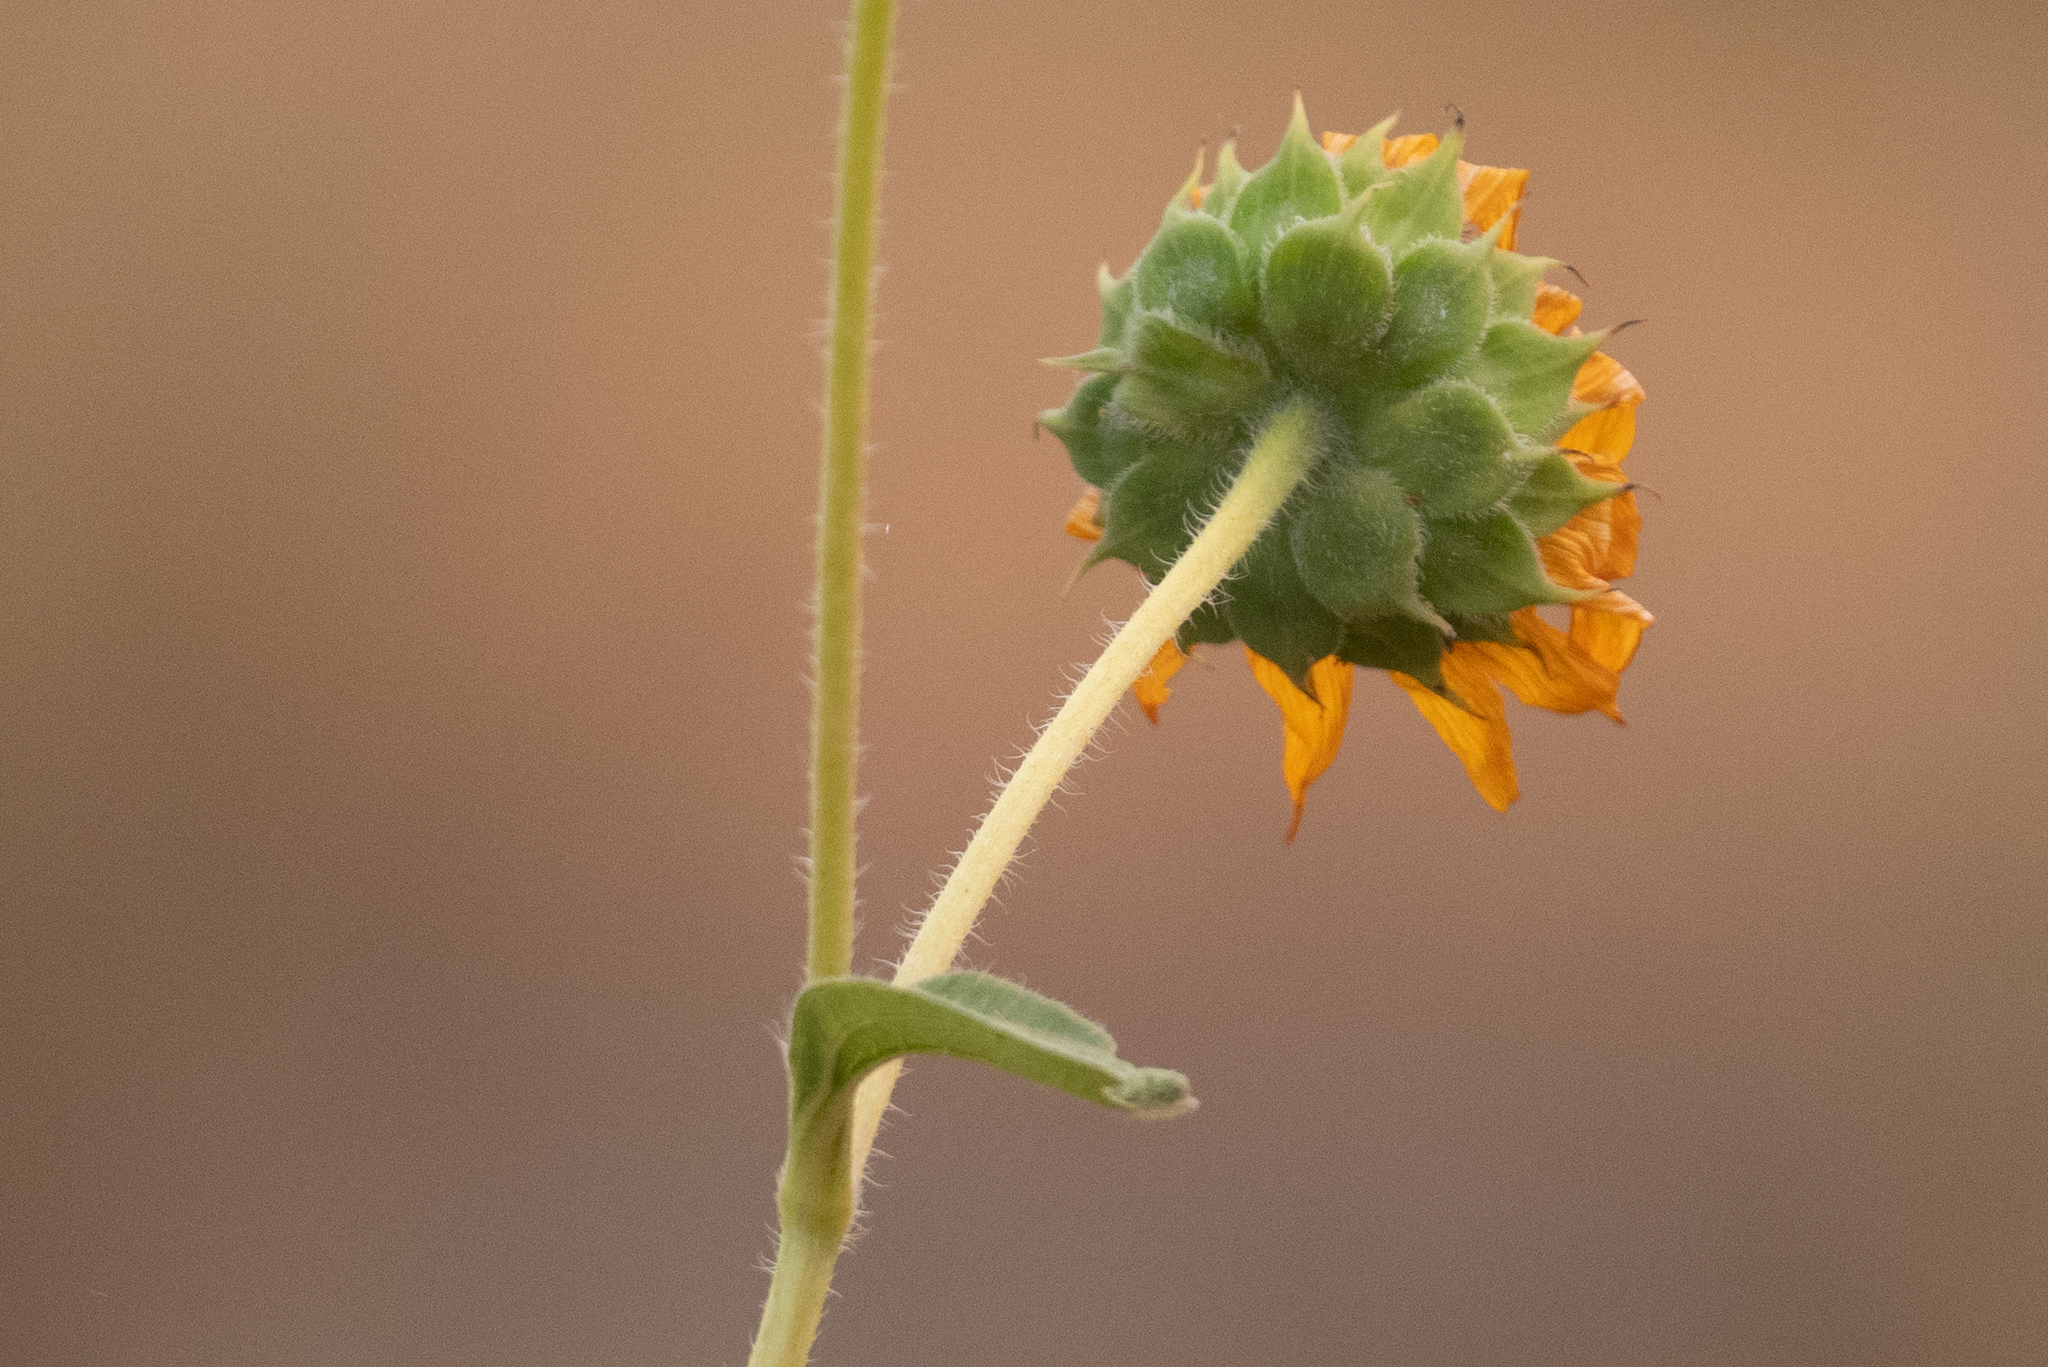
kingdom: Plantae
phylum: Tracheophyta
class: Magnoliopsida
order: Asterales
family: Asteraceae
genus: Helianthus
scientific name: Helianthus annuus
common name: Sunflower
